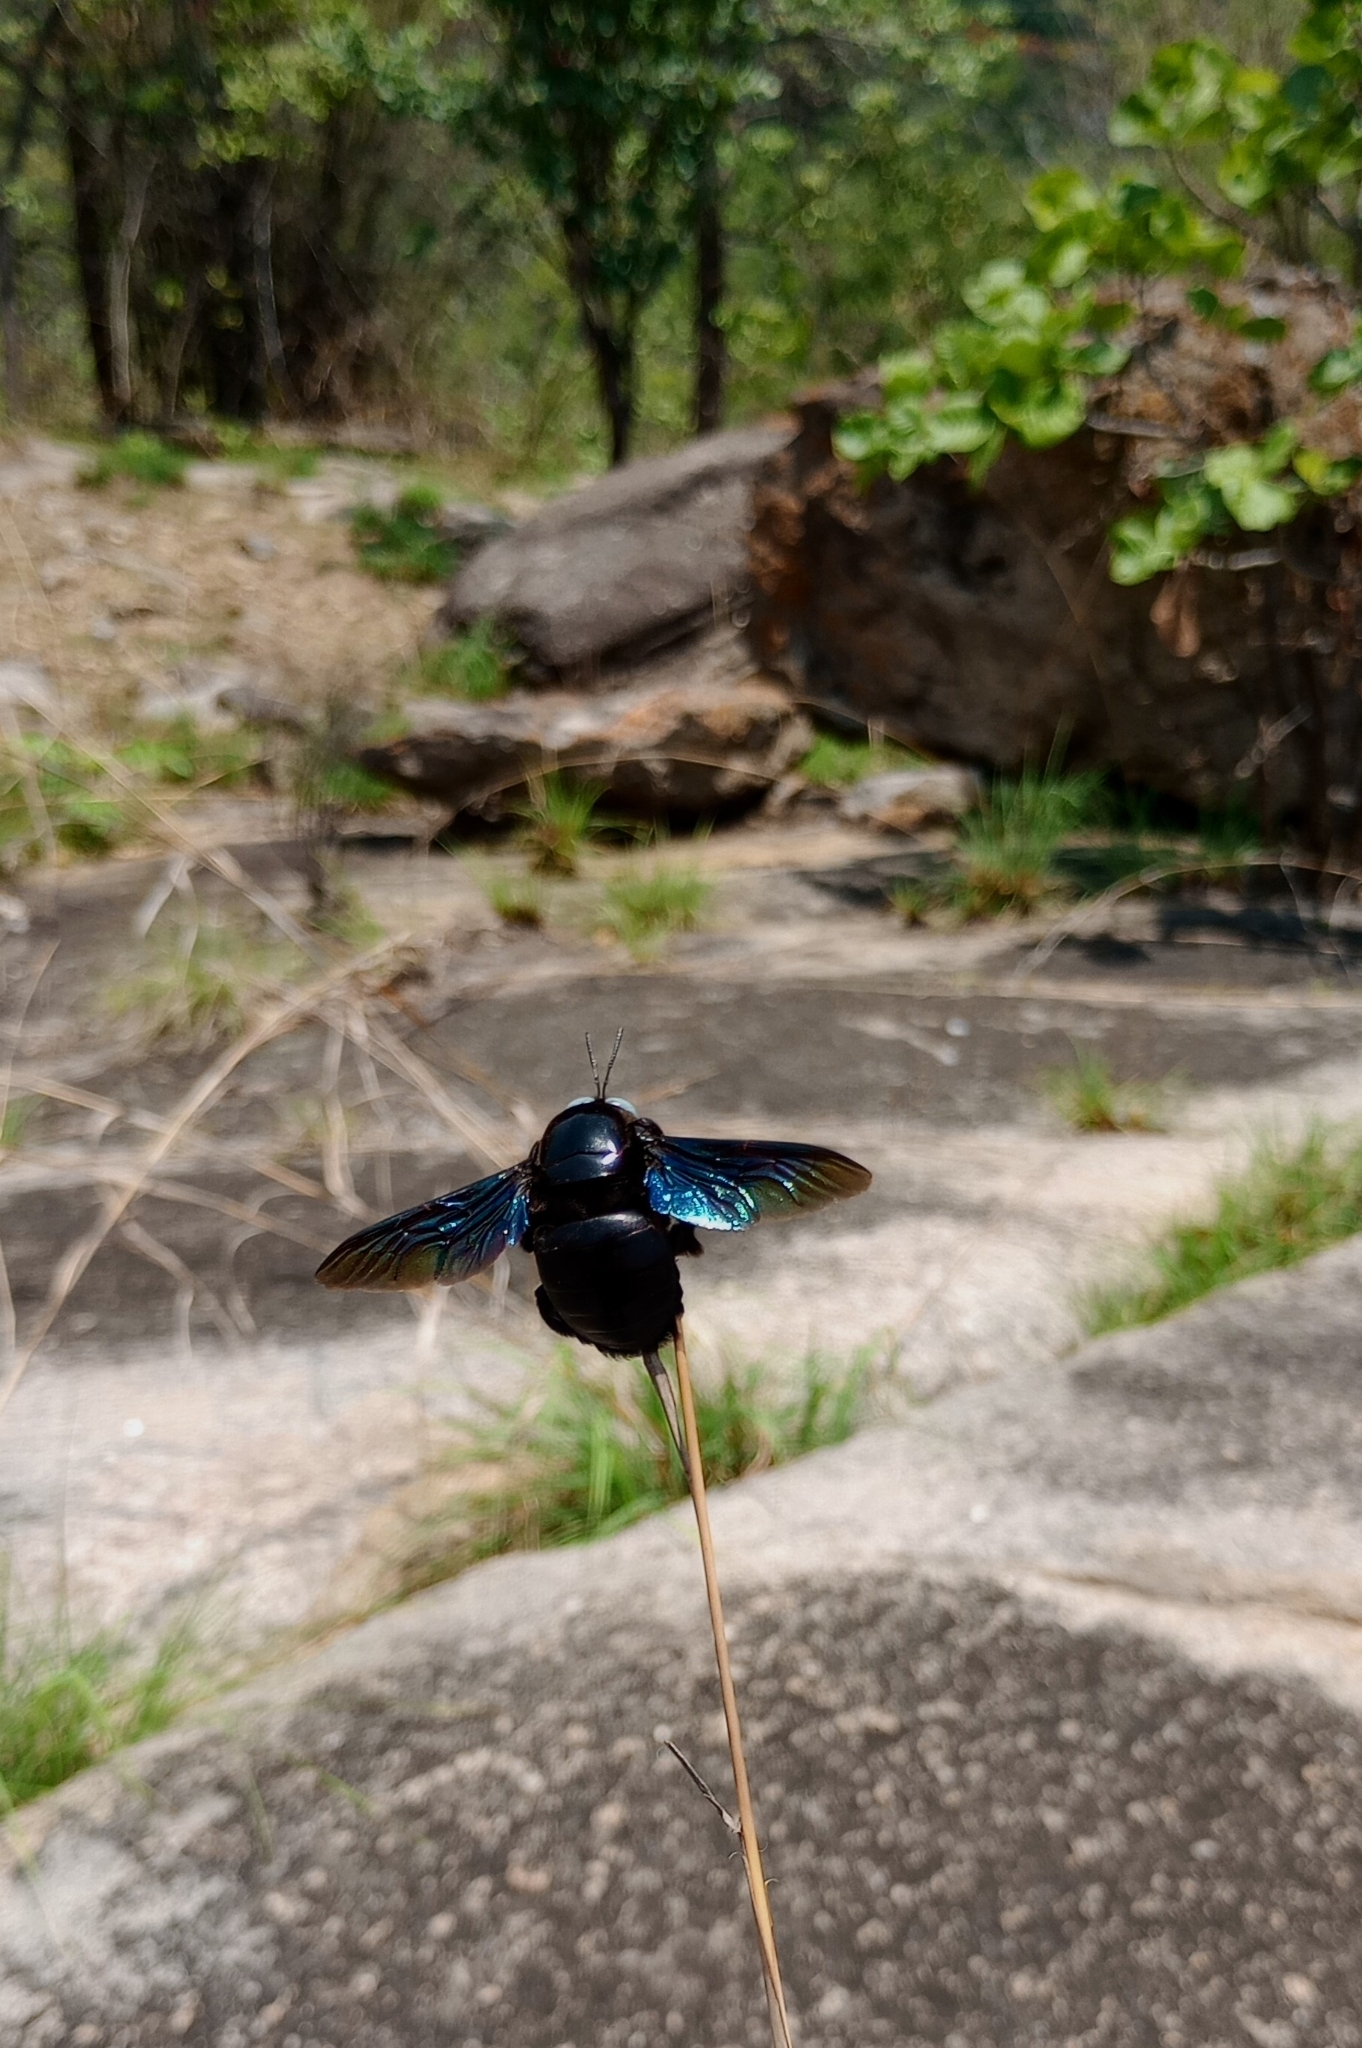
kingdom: Animalia
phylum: Arthropoda
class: Insecta
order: Hymenoptera
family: Apidae
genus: Xylocopa
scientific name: Xylocopa tenuiscapa
